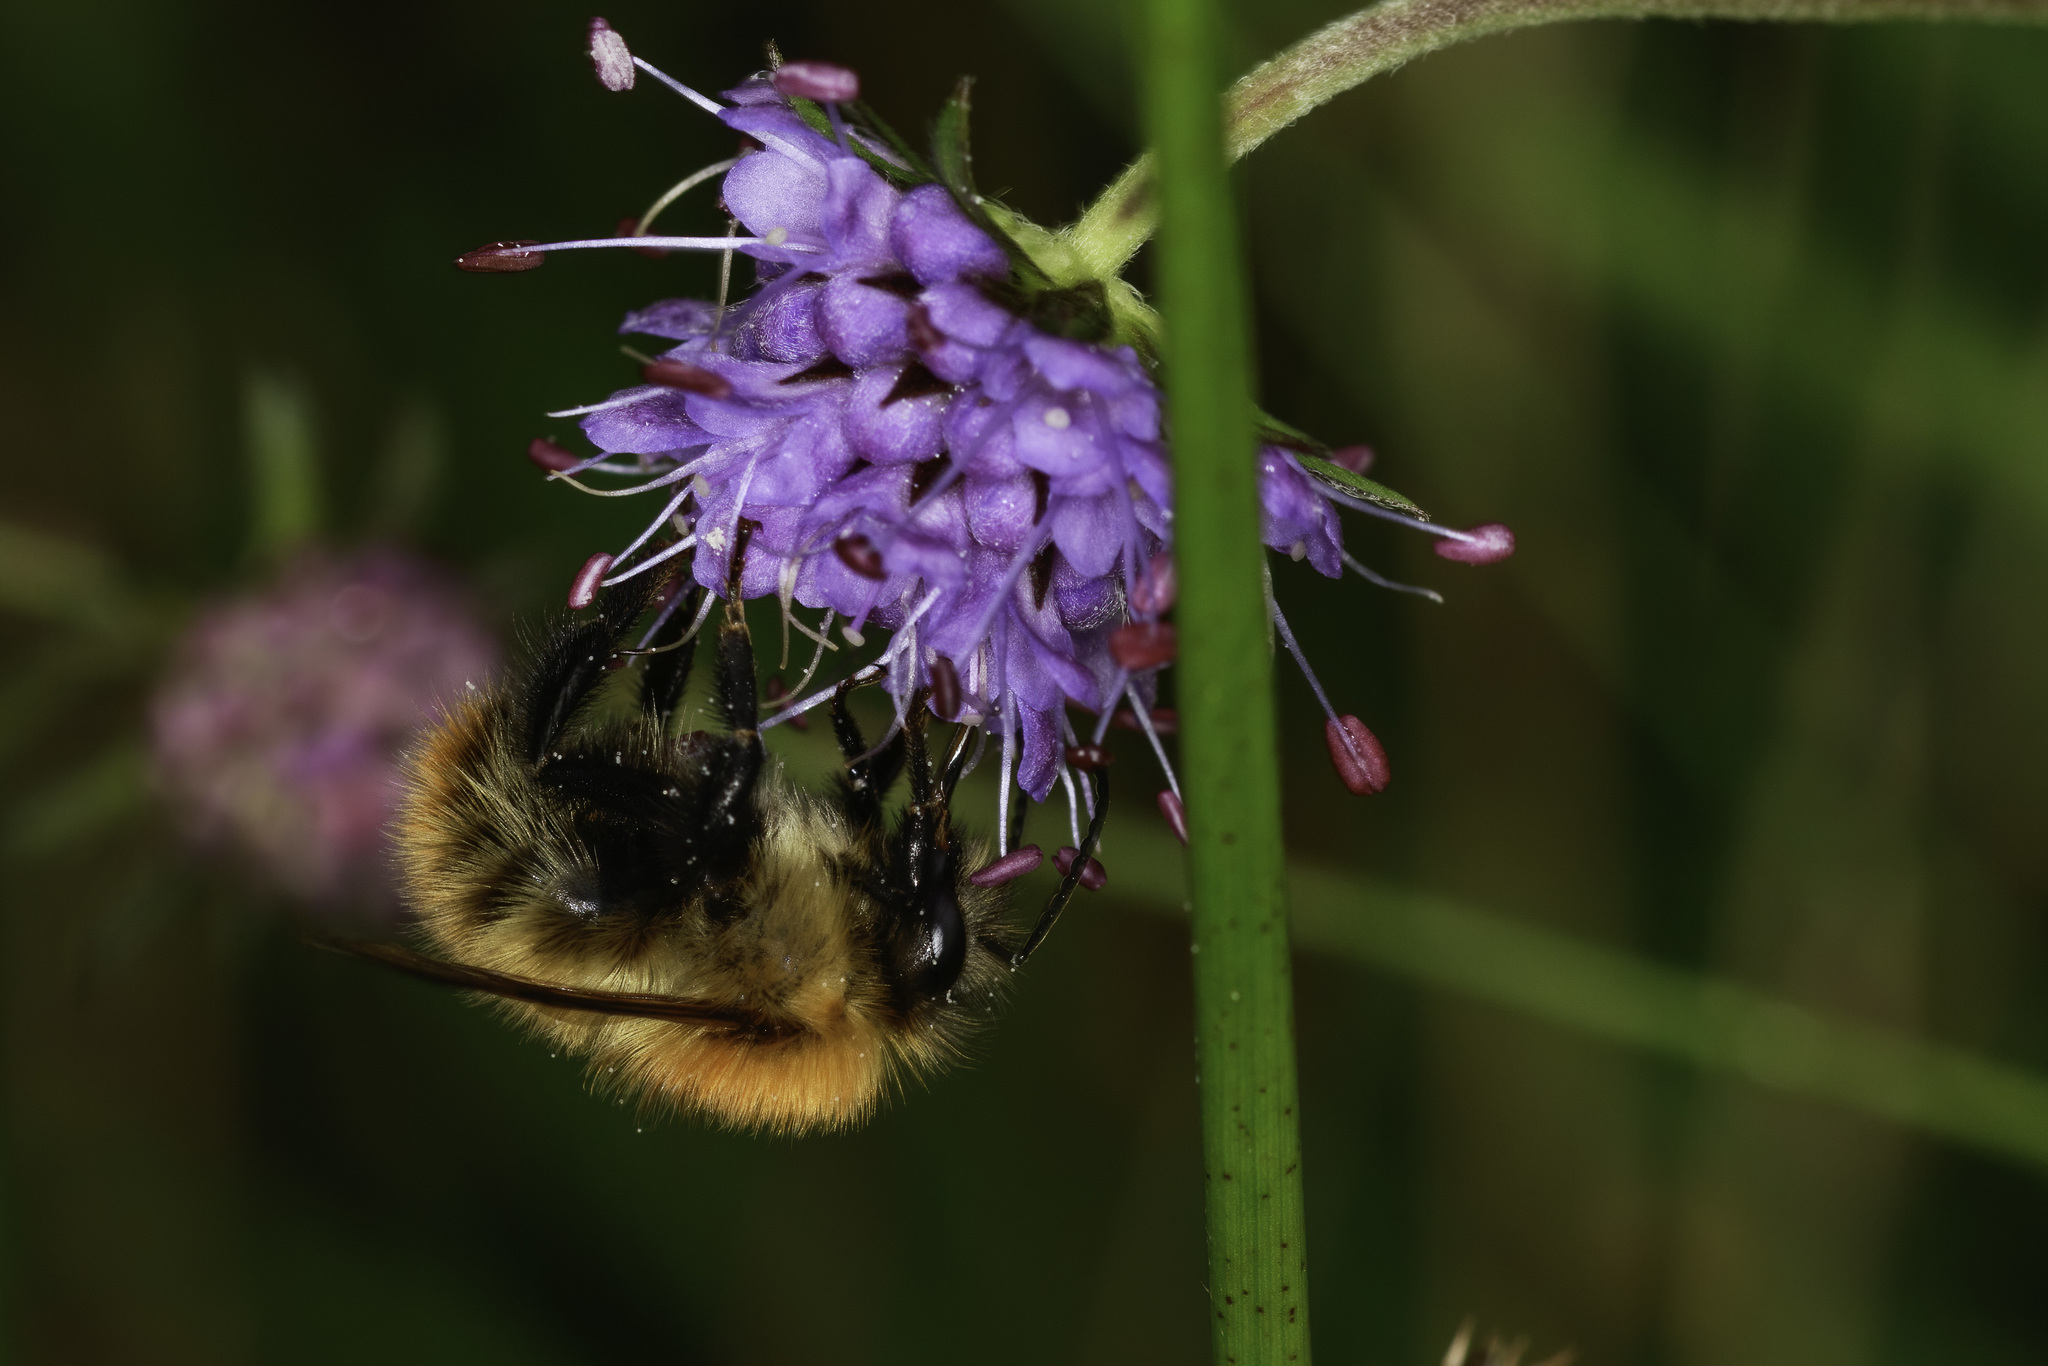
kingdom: Animalia
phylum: Arthropoda
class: Insecta
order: Hymenoptera
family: Apidae
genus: Bombus
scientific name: Bombus pascuorum
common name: Common carder bee
